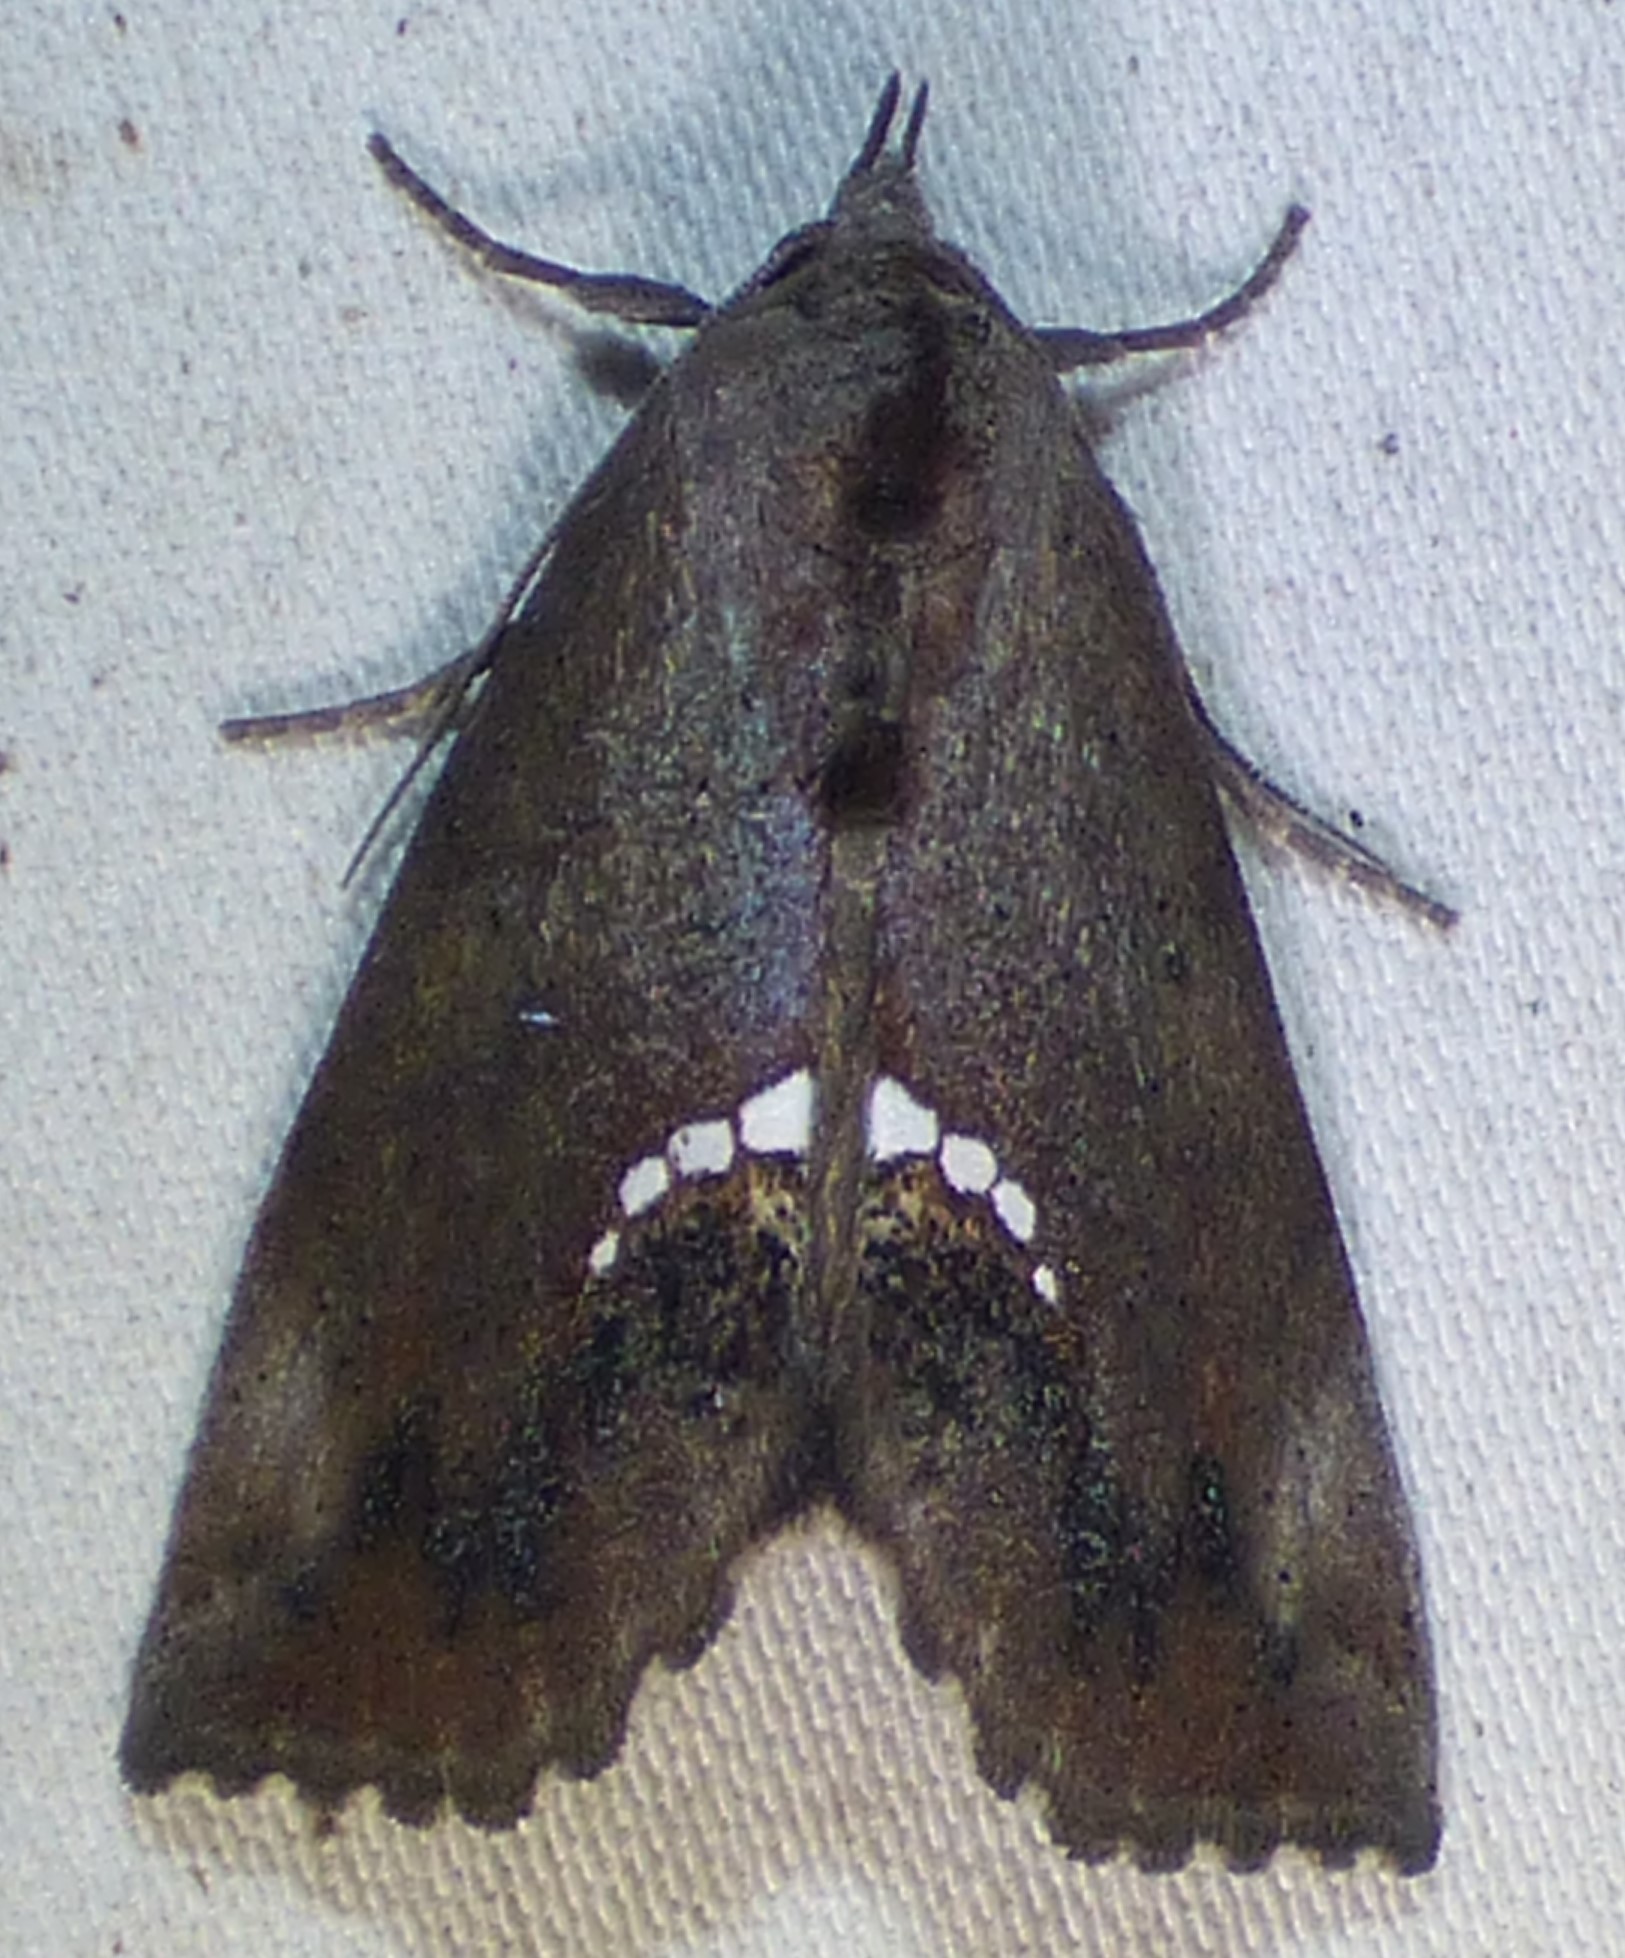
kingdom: Animalia
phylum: Arthropoda
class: Insecta
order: Lepidoptera
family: Erebidae
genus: Hypsoropha
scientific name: Hypsoropha hormos
